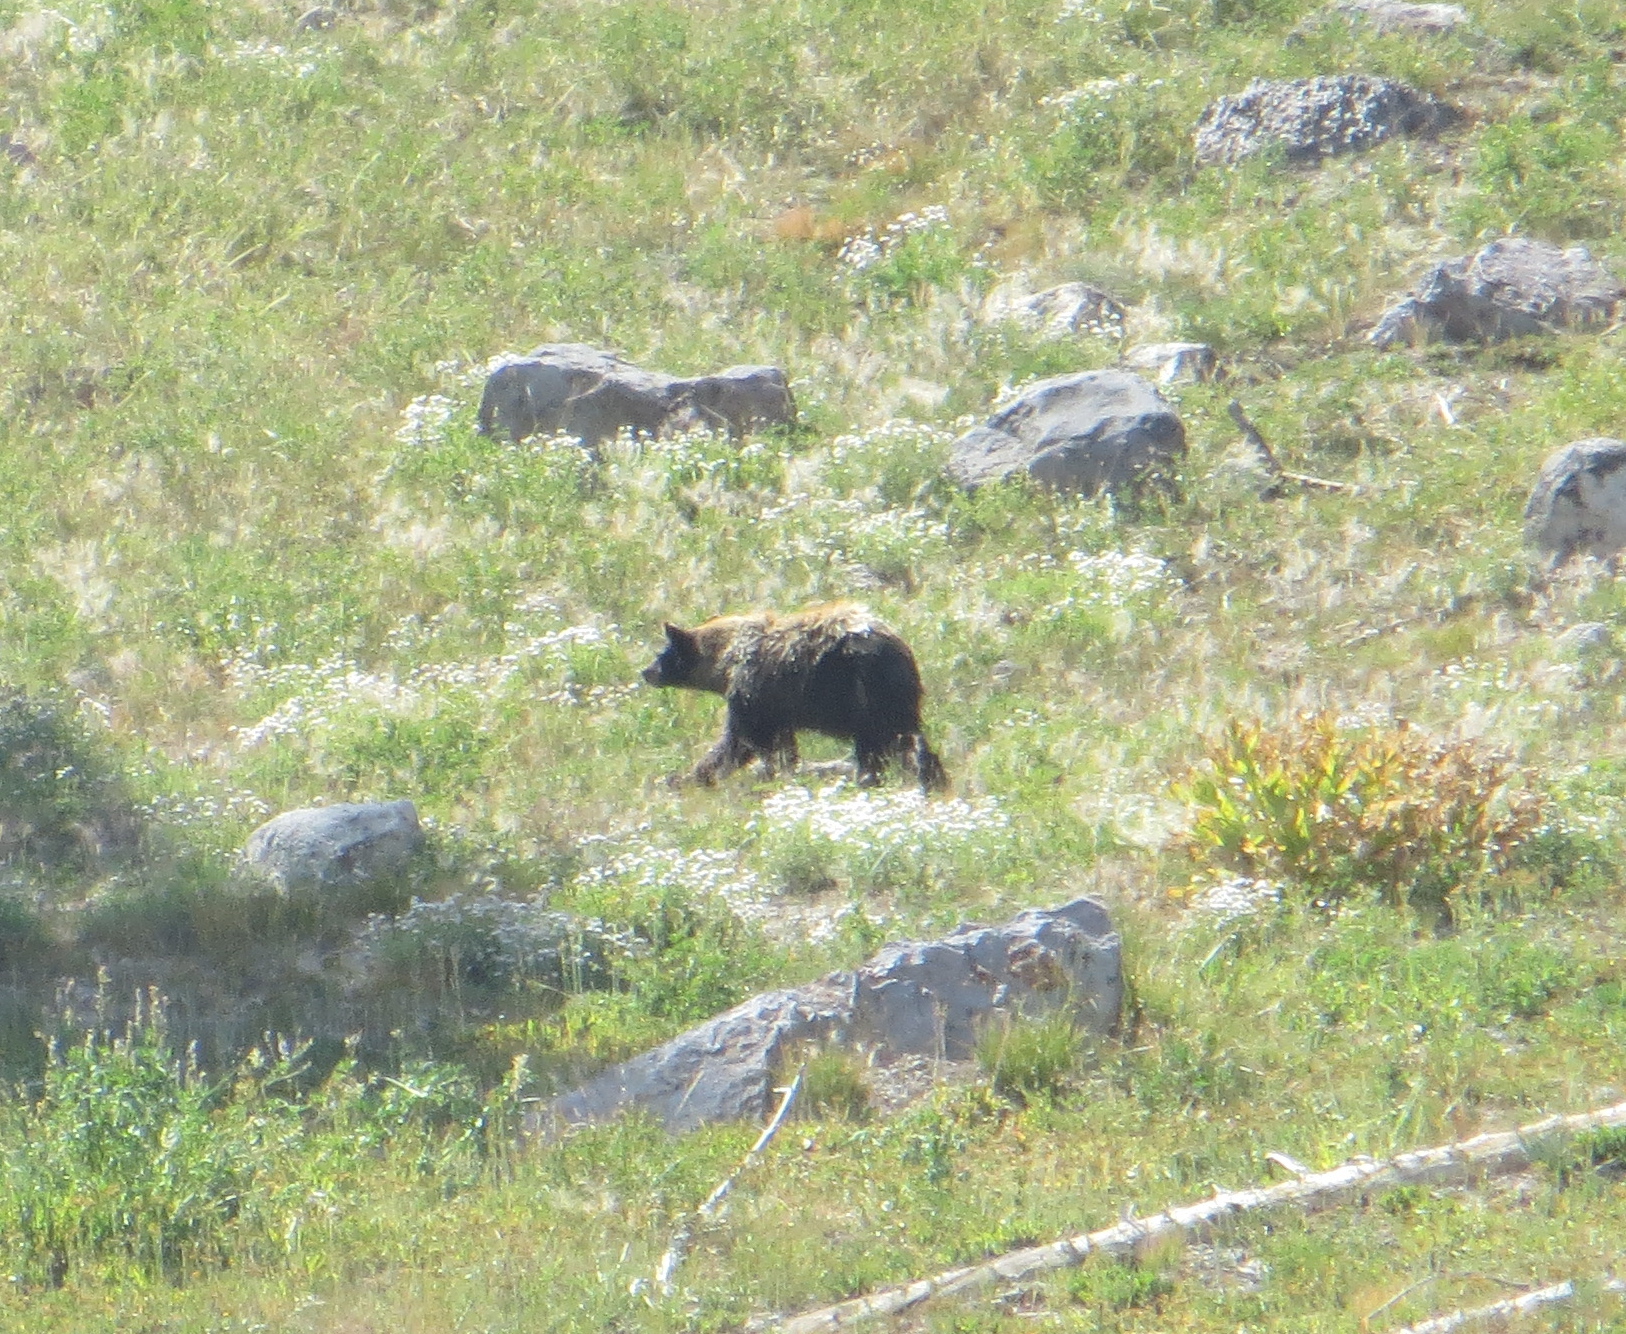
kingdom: Animalia
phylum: Chordata
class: Mammalia
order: Carnivora
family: Ursidae
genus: Ursus
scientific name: Ursus americanus
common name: American black bear
